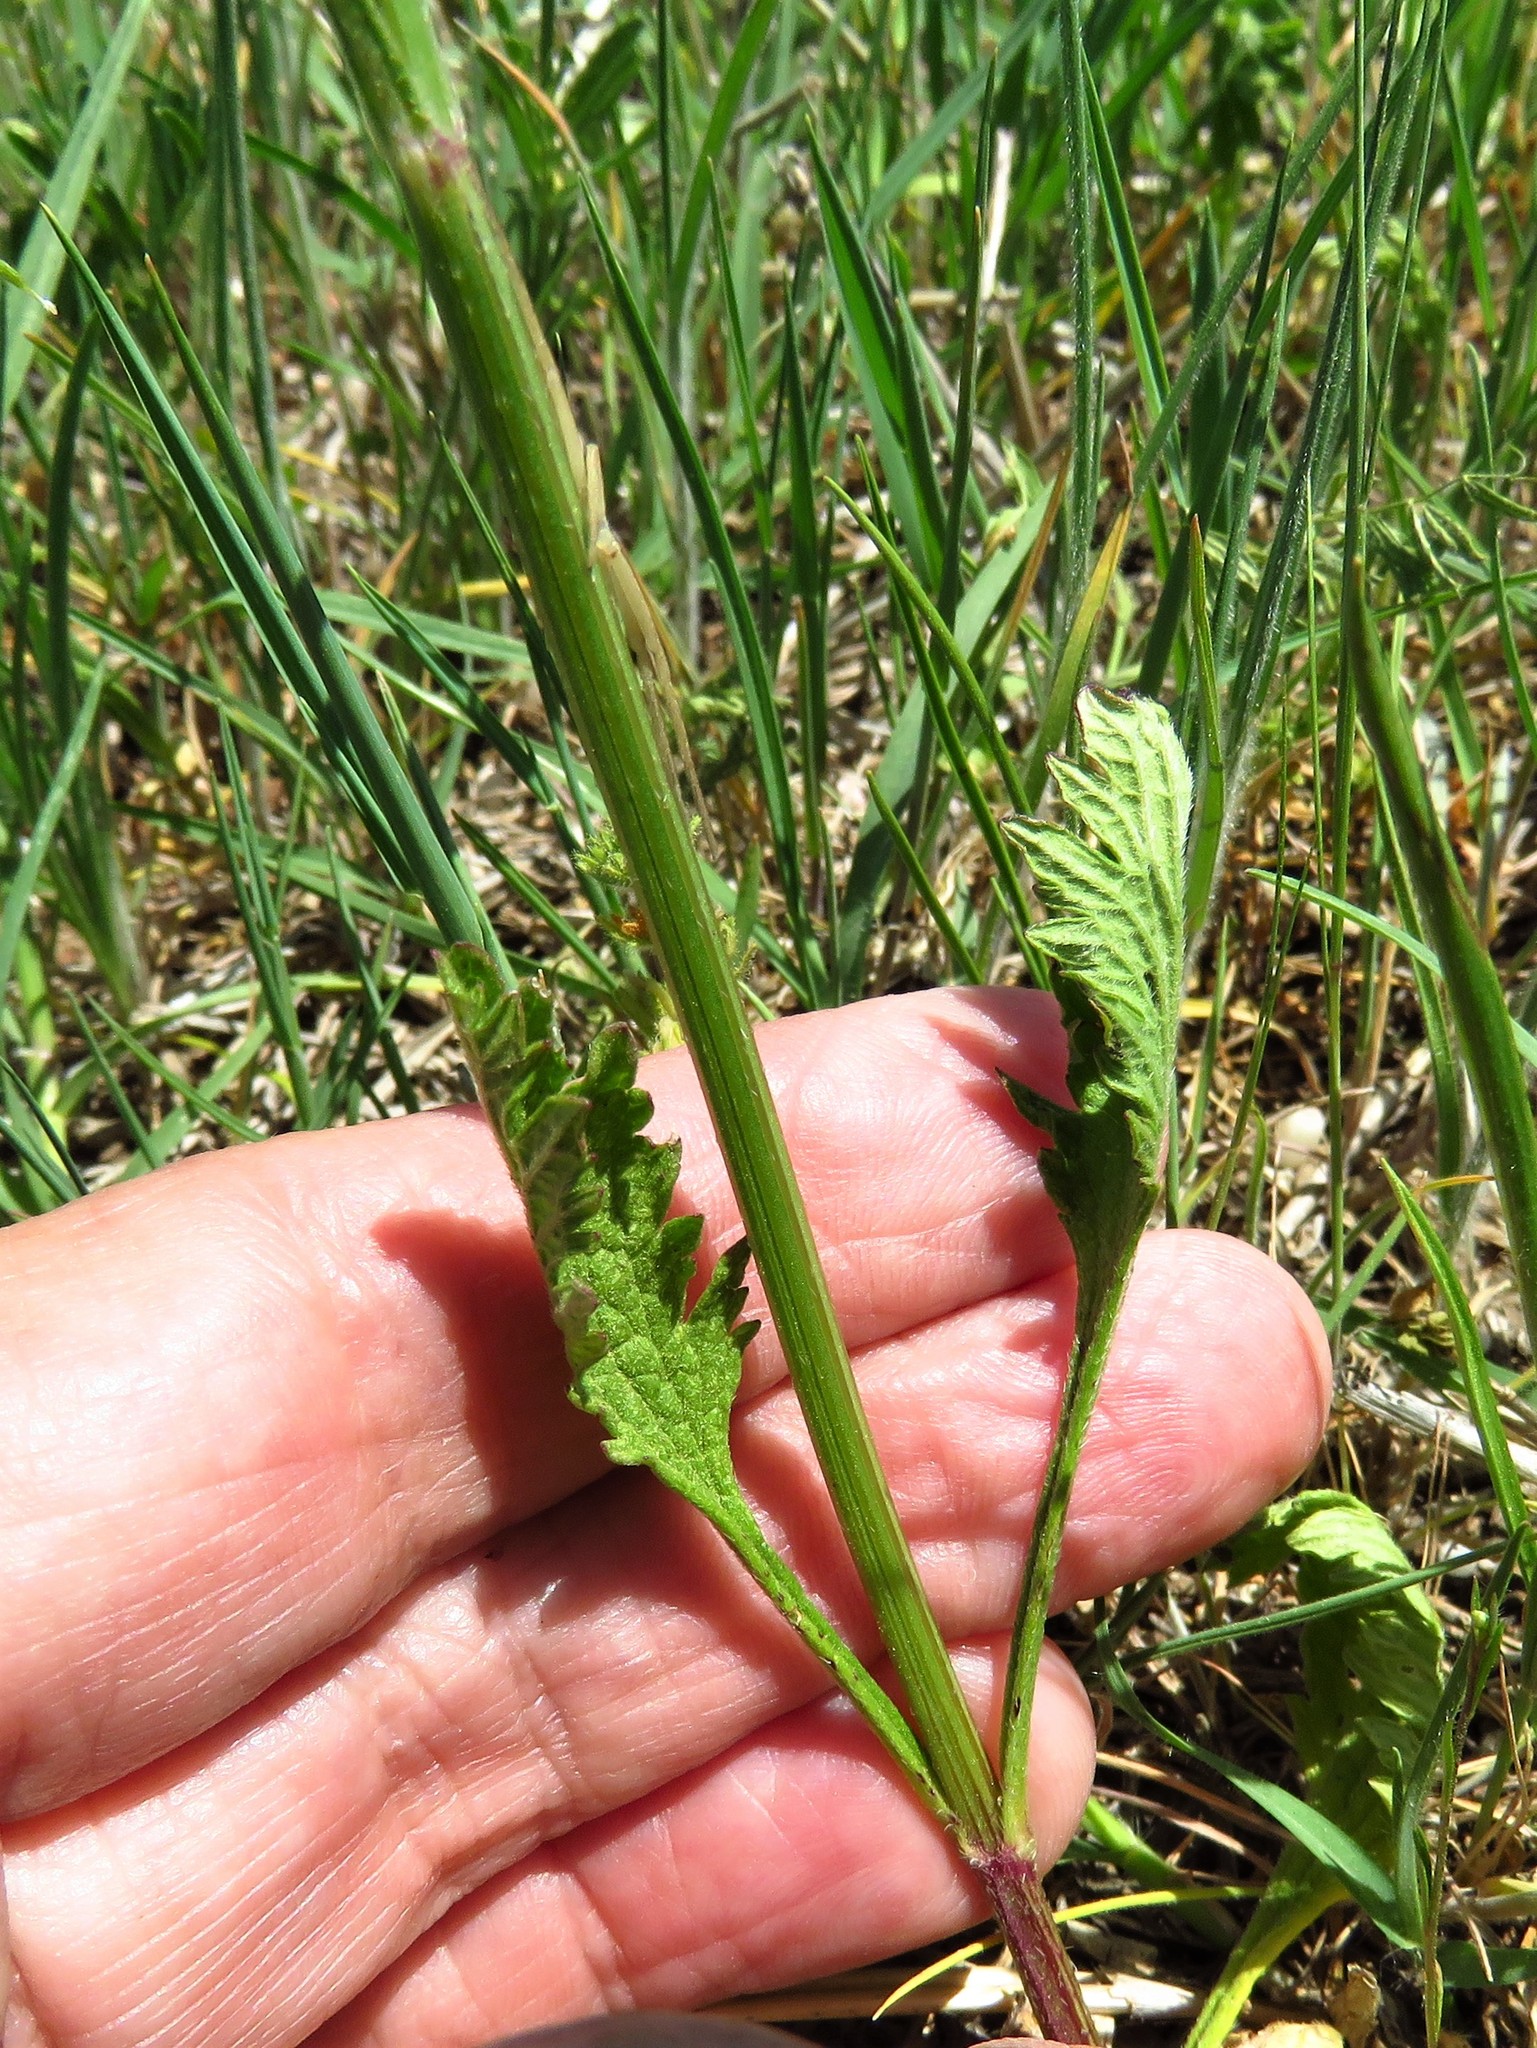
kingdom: Plantae
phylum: Tracheophyta
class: Magnoliopsida
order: Lamiales
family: Verbenaceae
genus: Verbena
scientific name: Verbena halei
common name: Texas vervain
